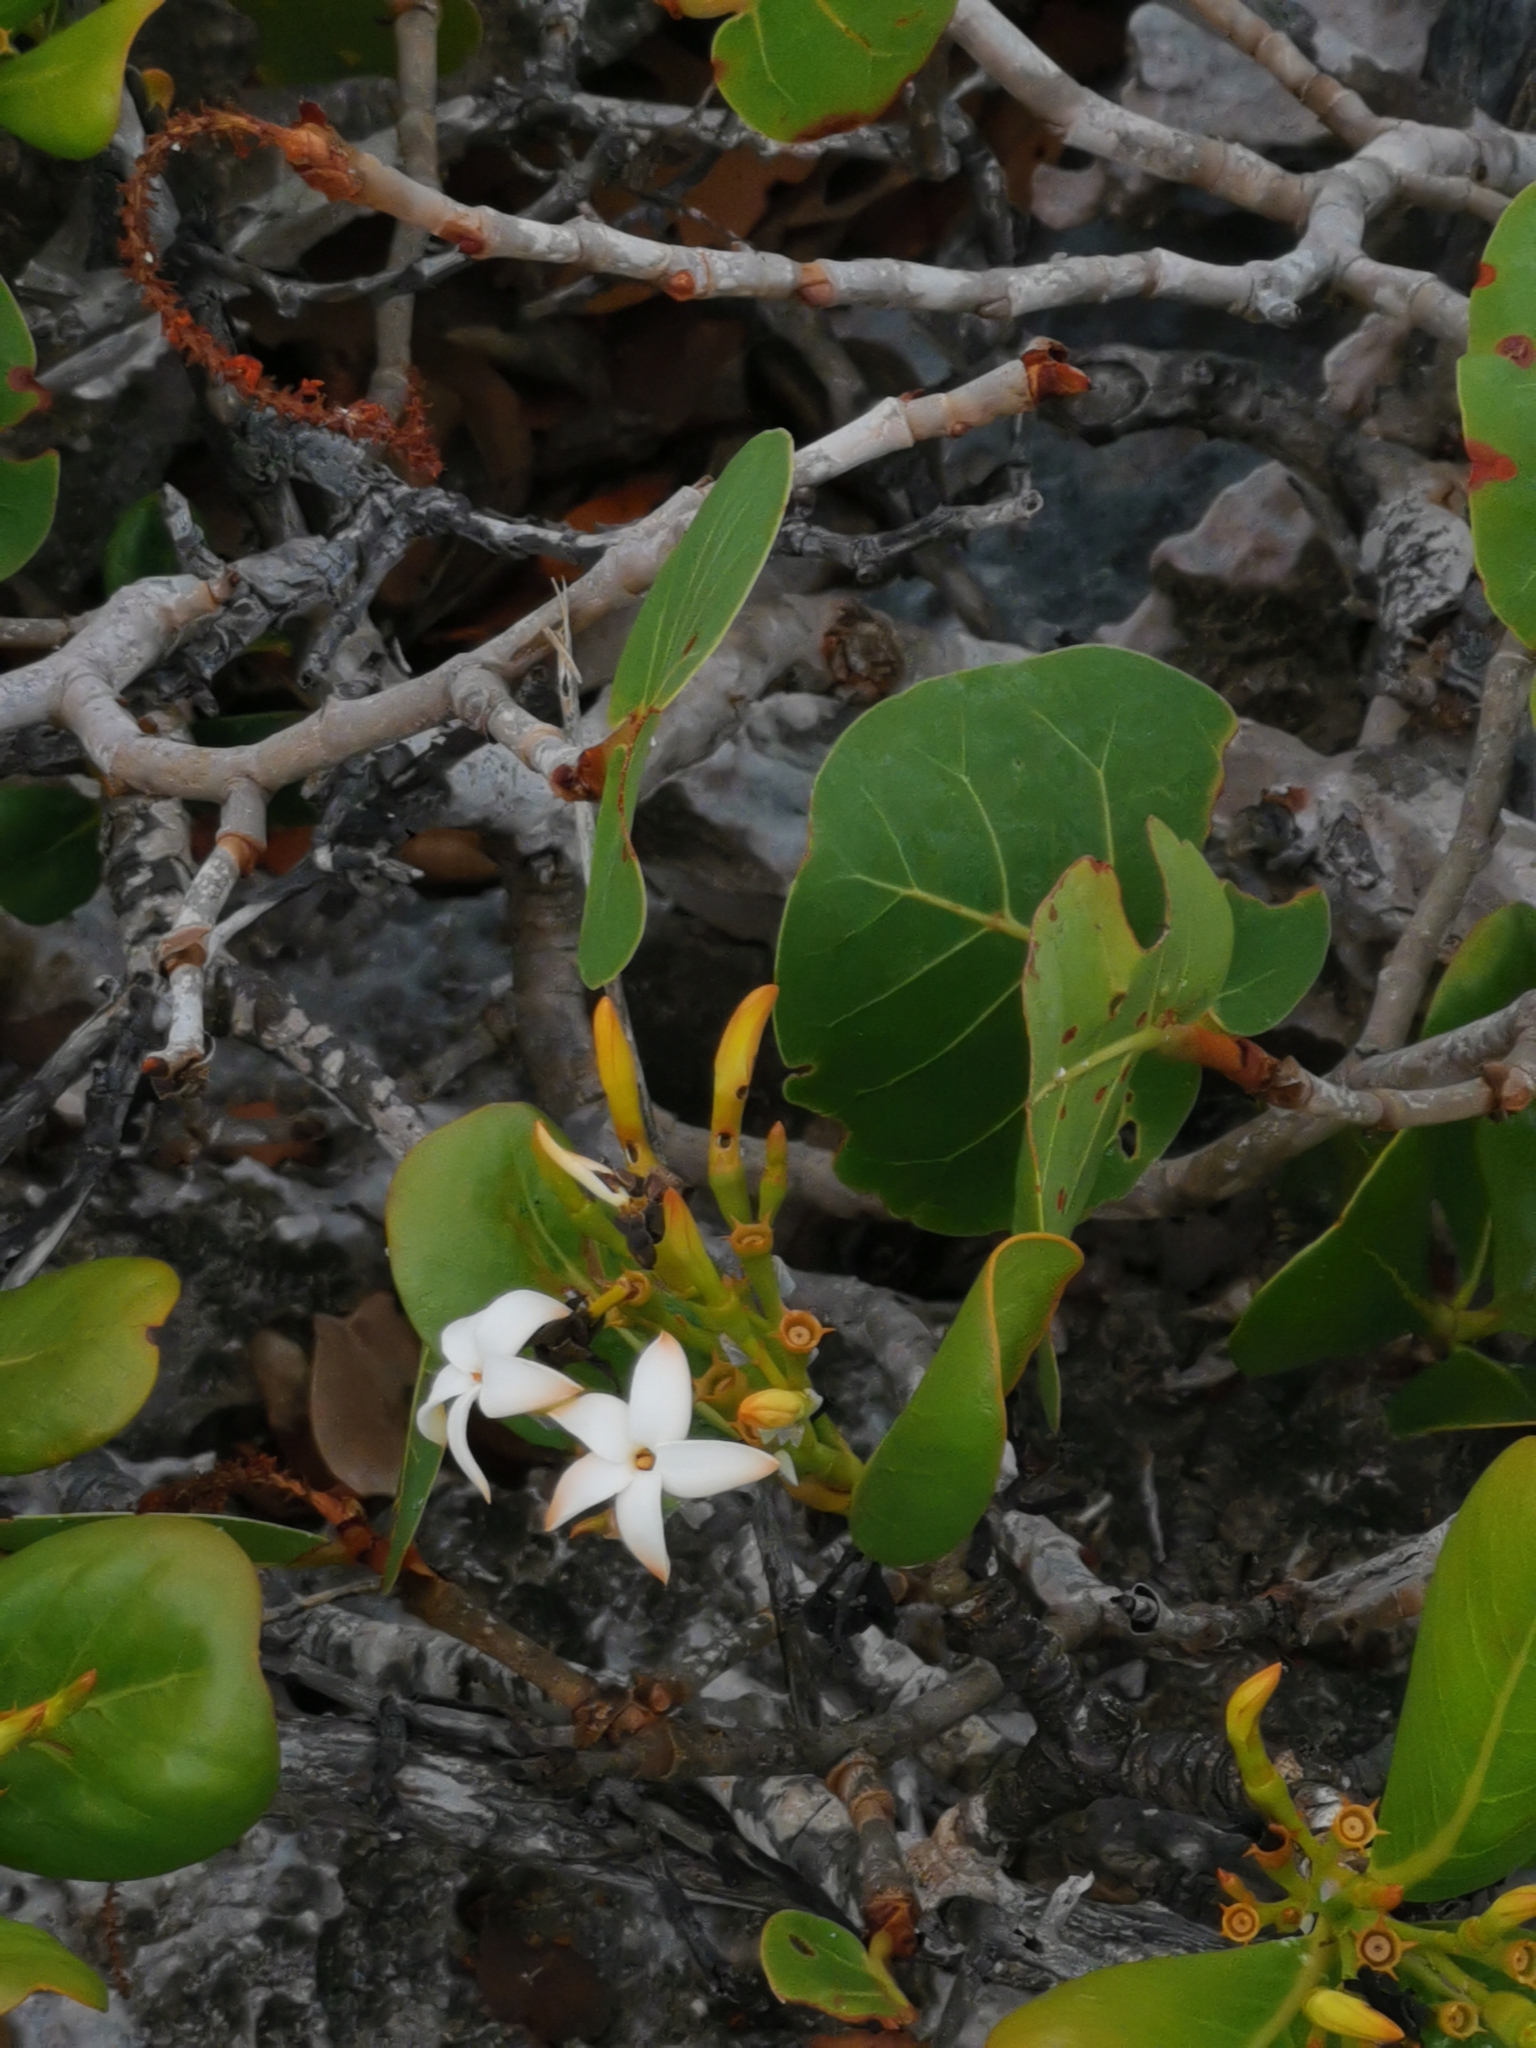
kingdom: Plantae
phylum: Tracheophyta
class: Magnoliopsida
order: Gentianales
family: Rubiaceae
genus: Casasia
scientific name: Casasia clusiifolia
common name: Seven-year apple
